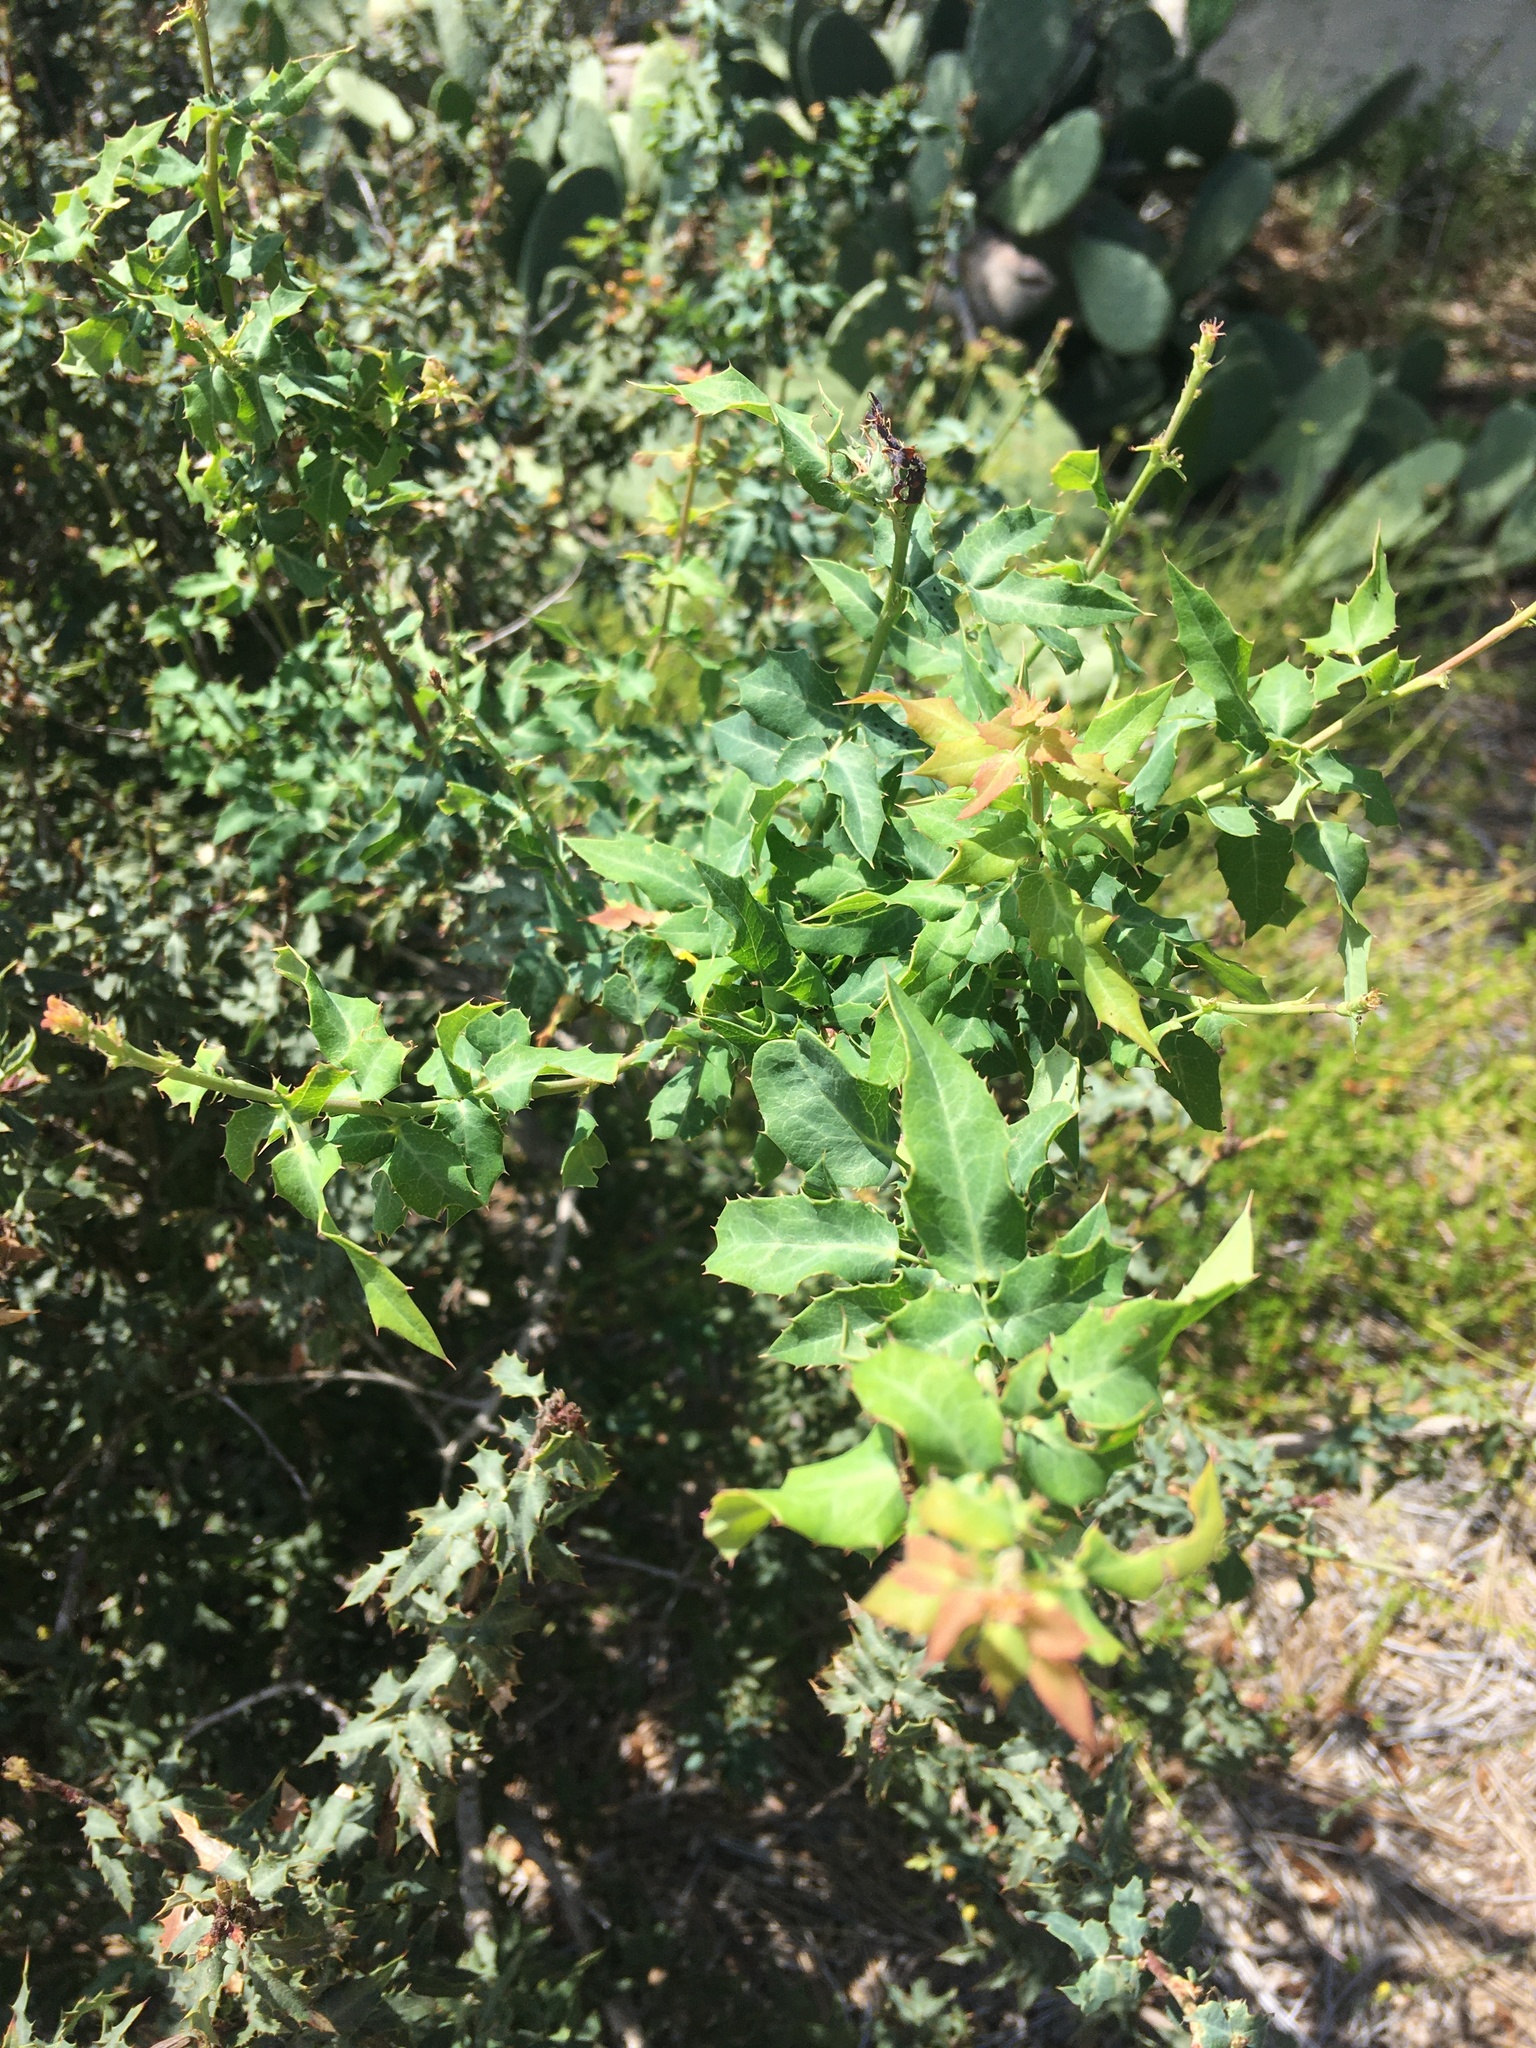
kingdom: Plantae
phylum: Tracheophyta
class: Magnoliopsida
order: Ranunculales
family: Berberidaceae
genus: Alloberberis
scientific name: Alloberberis nevinii
